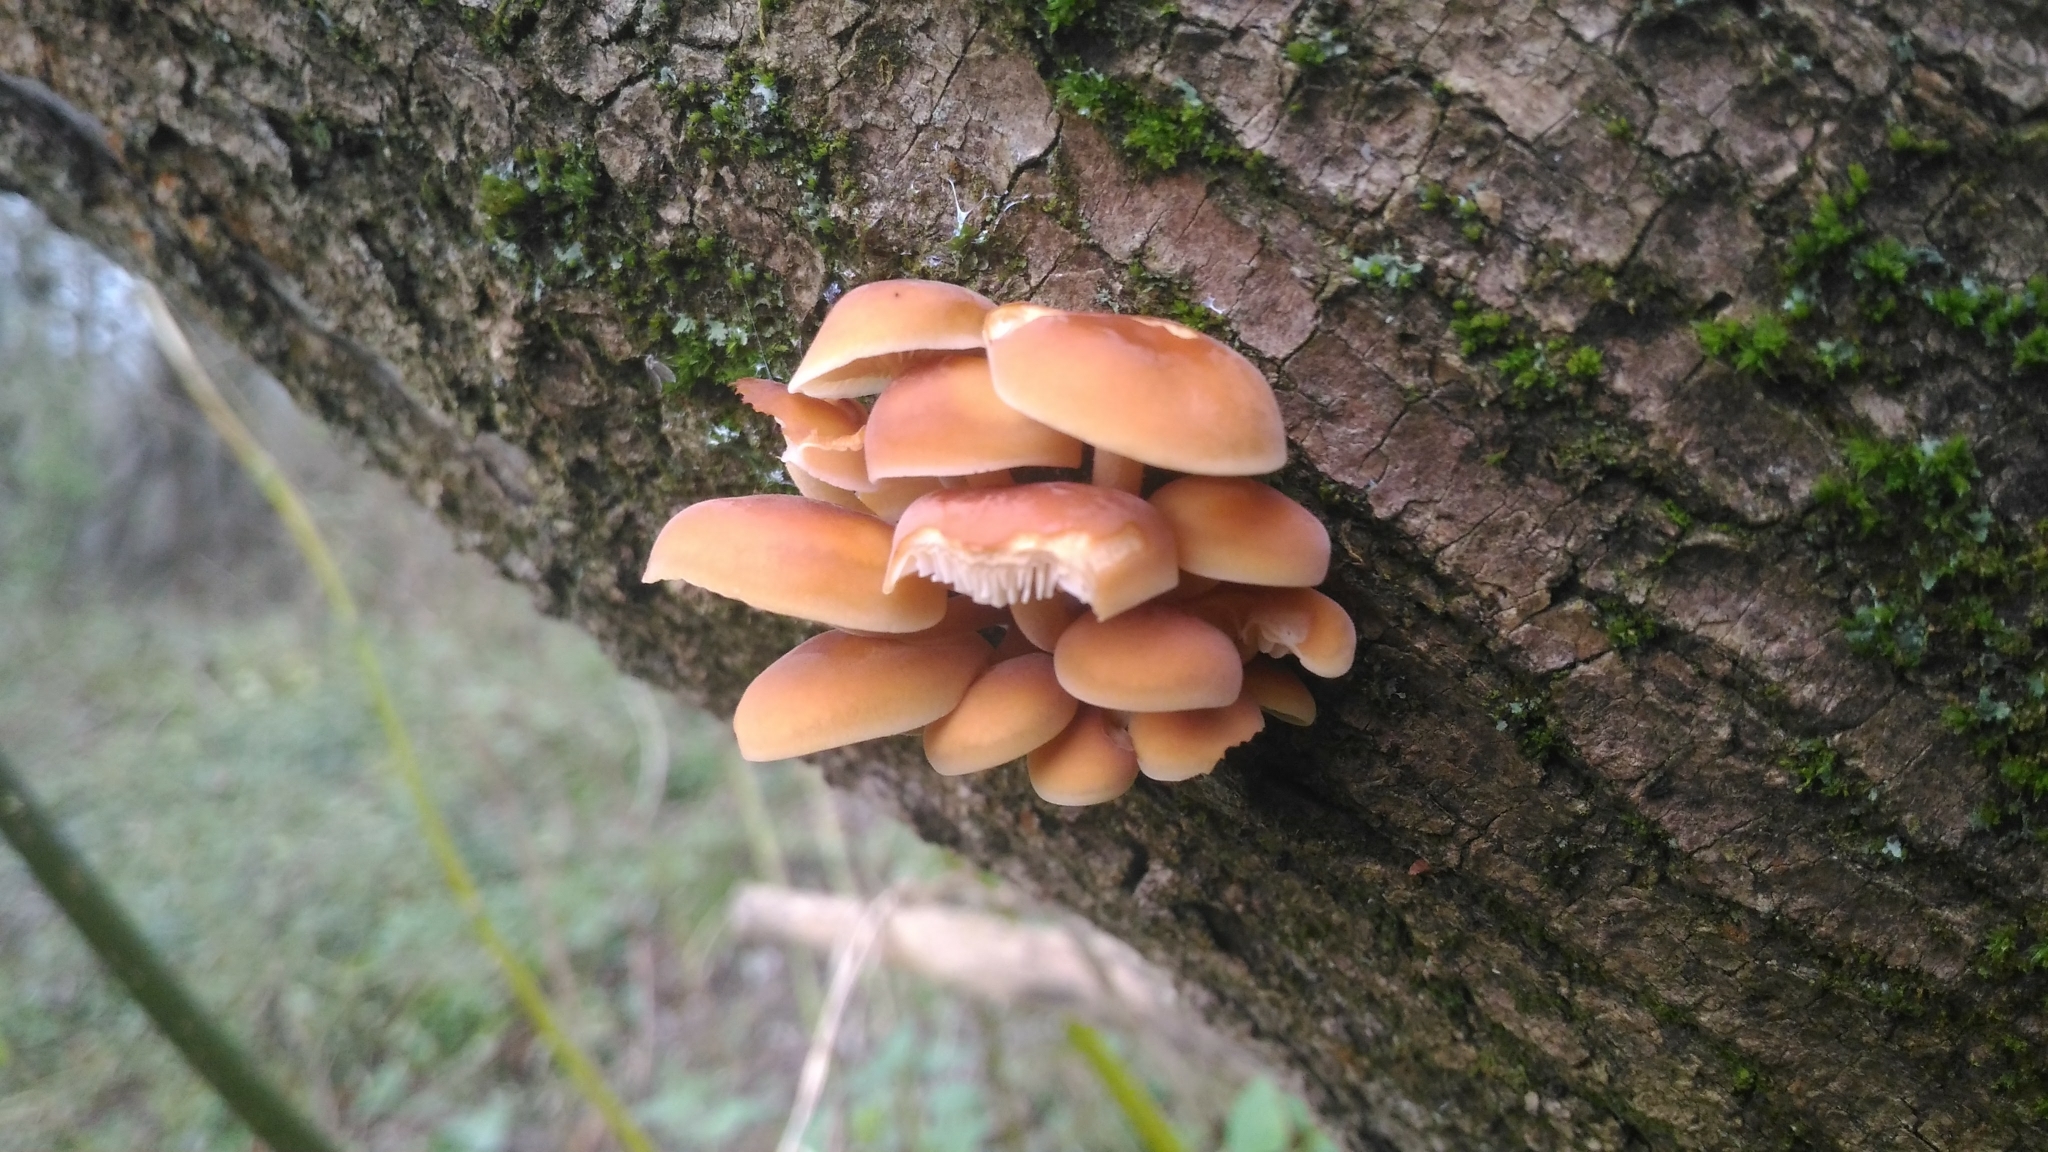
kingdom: Fungi
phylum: Basidiomycota
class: Agaricomycetes
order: Agaricales
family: Physalacriaceae
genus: Flammulina
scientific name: Flammulina
